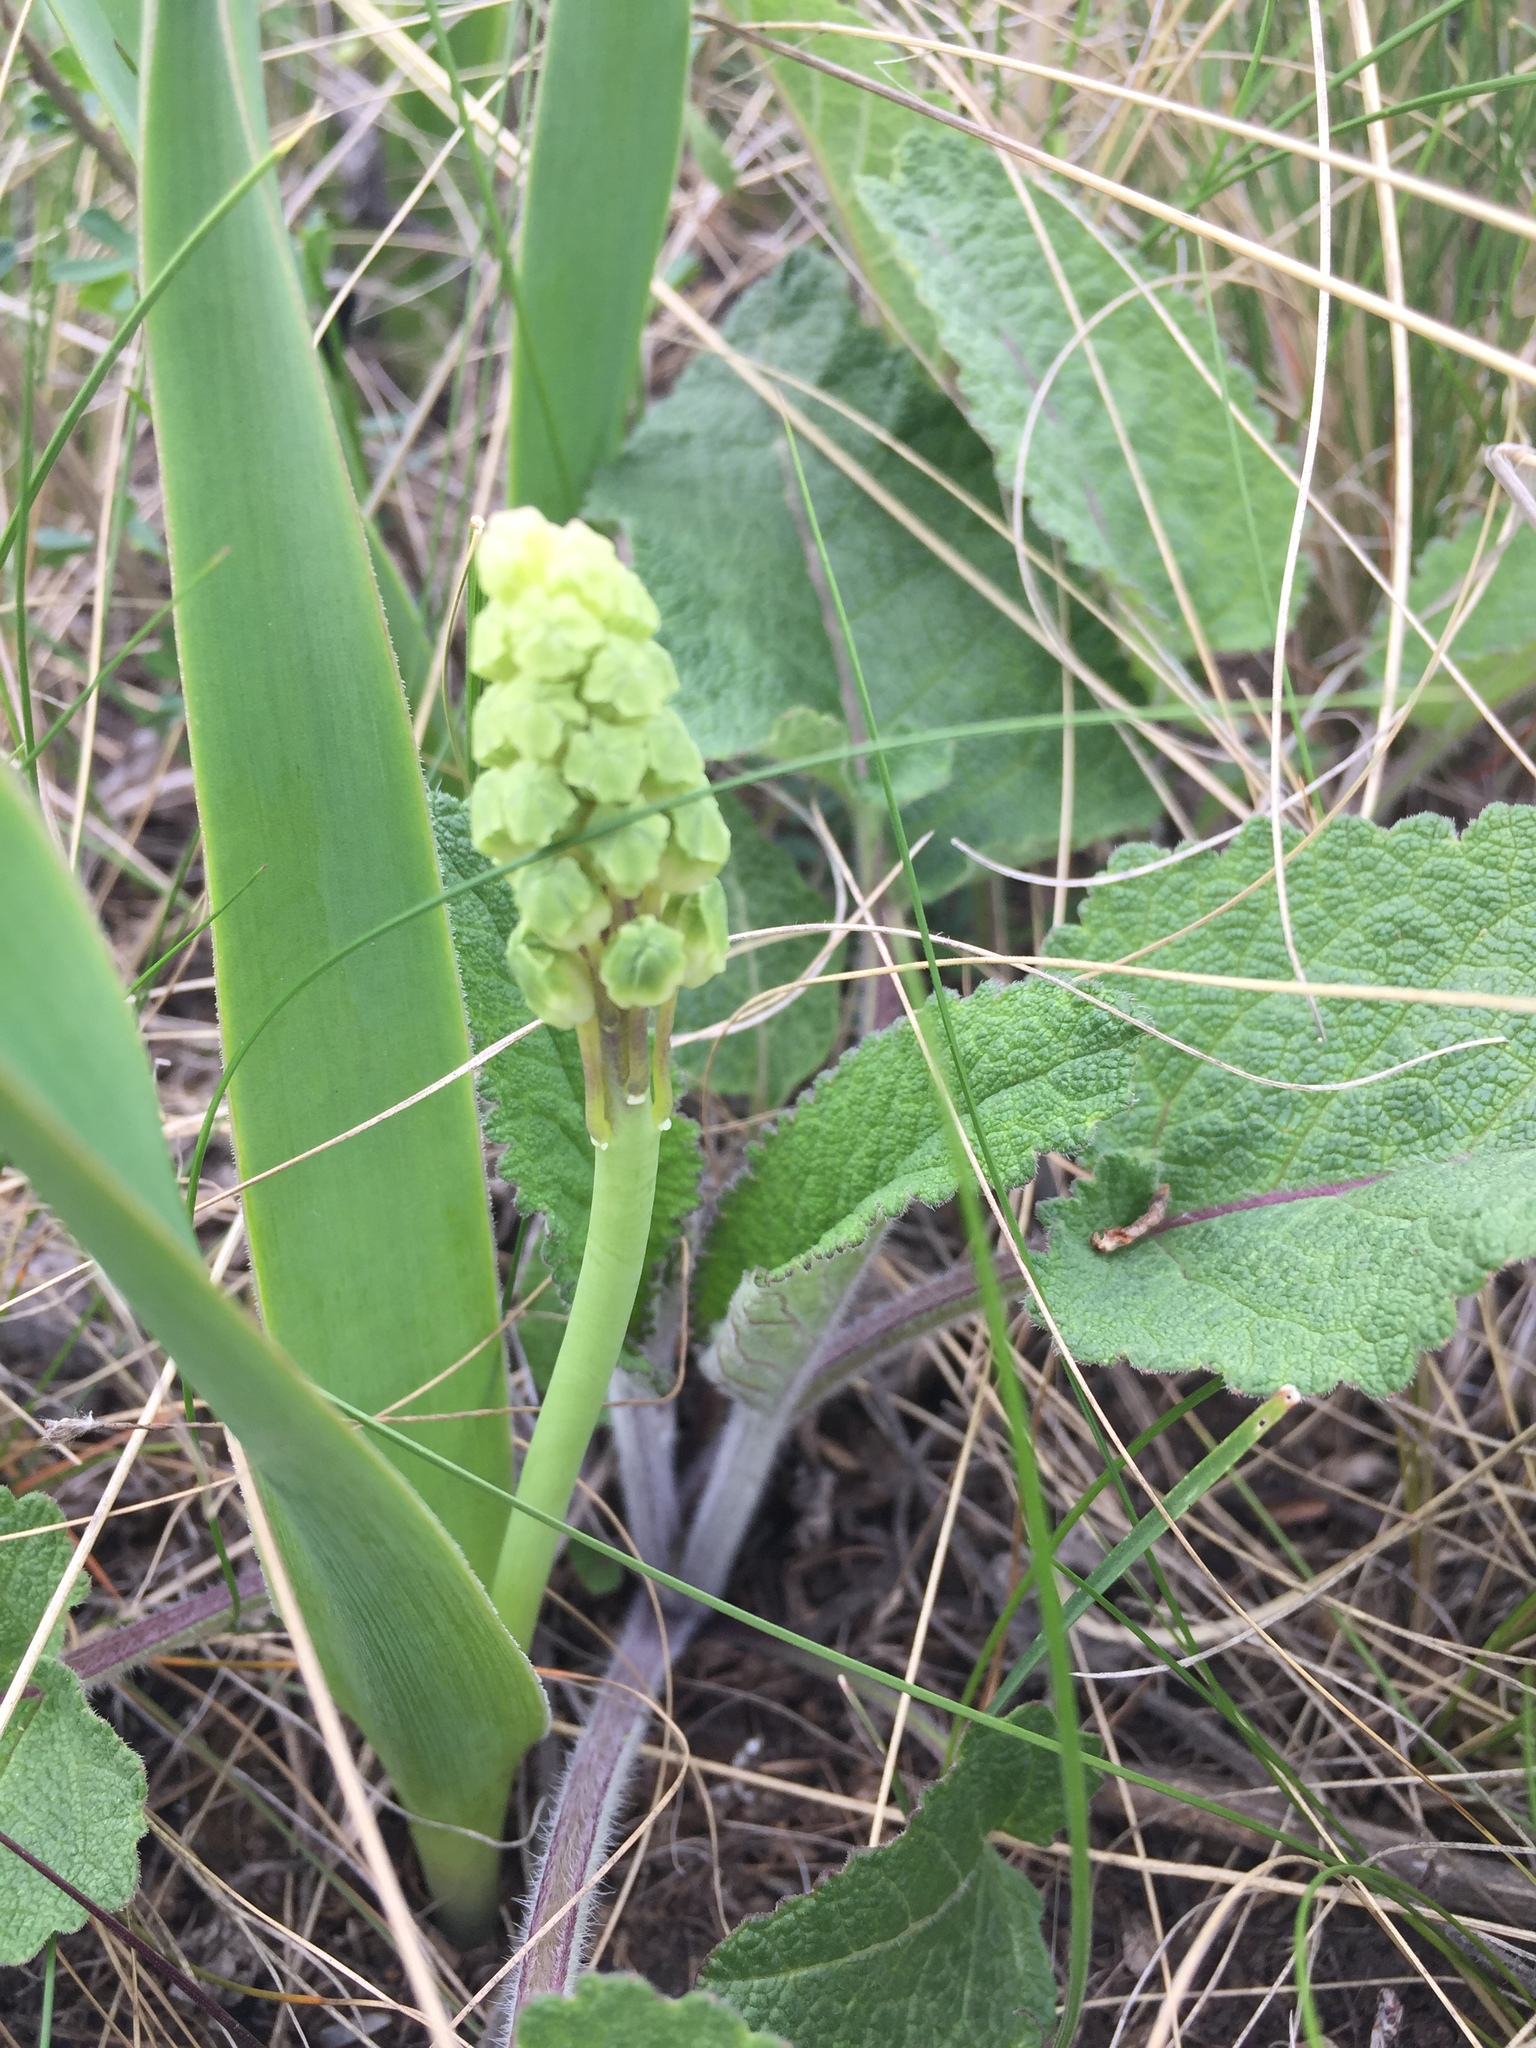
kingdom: Plantae
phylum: Tracheophyta
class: Liliopsida
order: Asparagales
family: Asparagaceae
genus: Bellevalia
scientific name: Bellevalia speciosa
